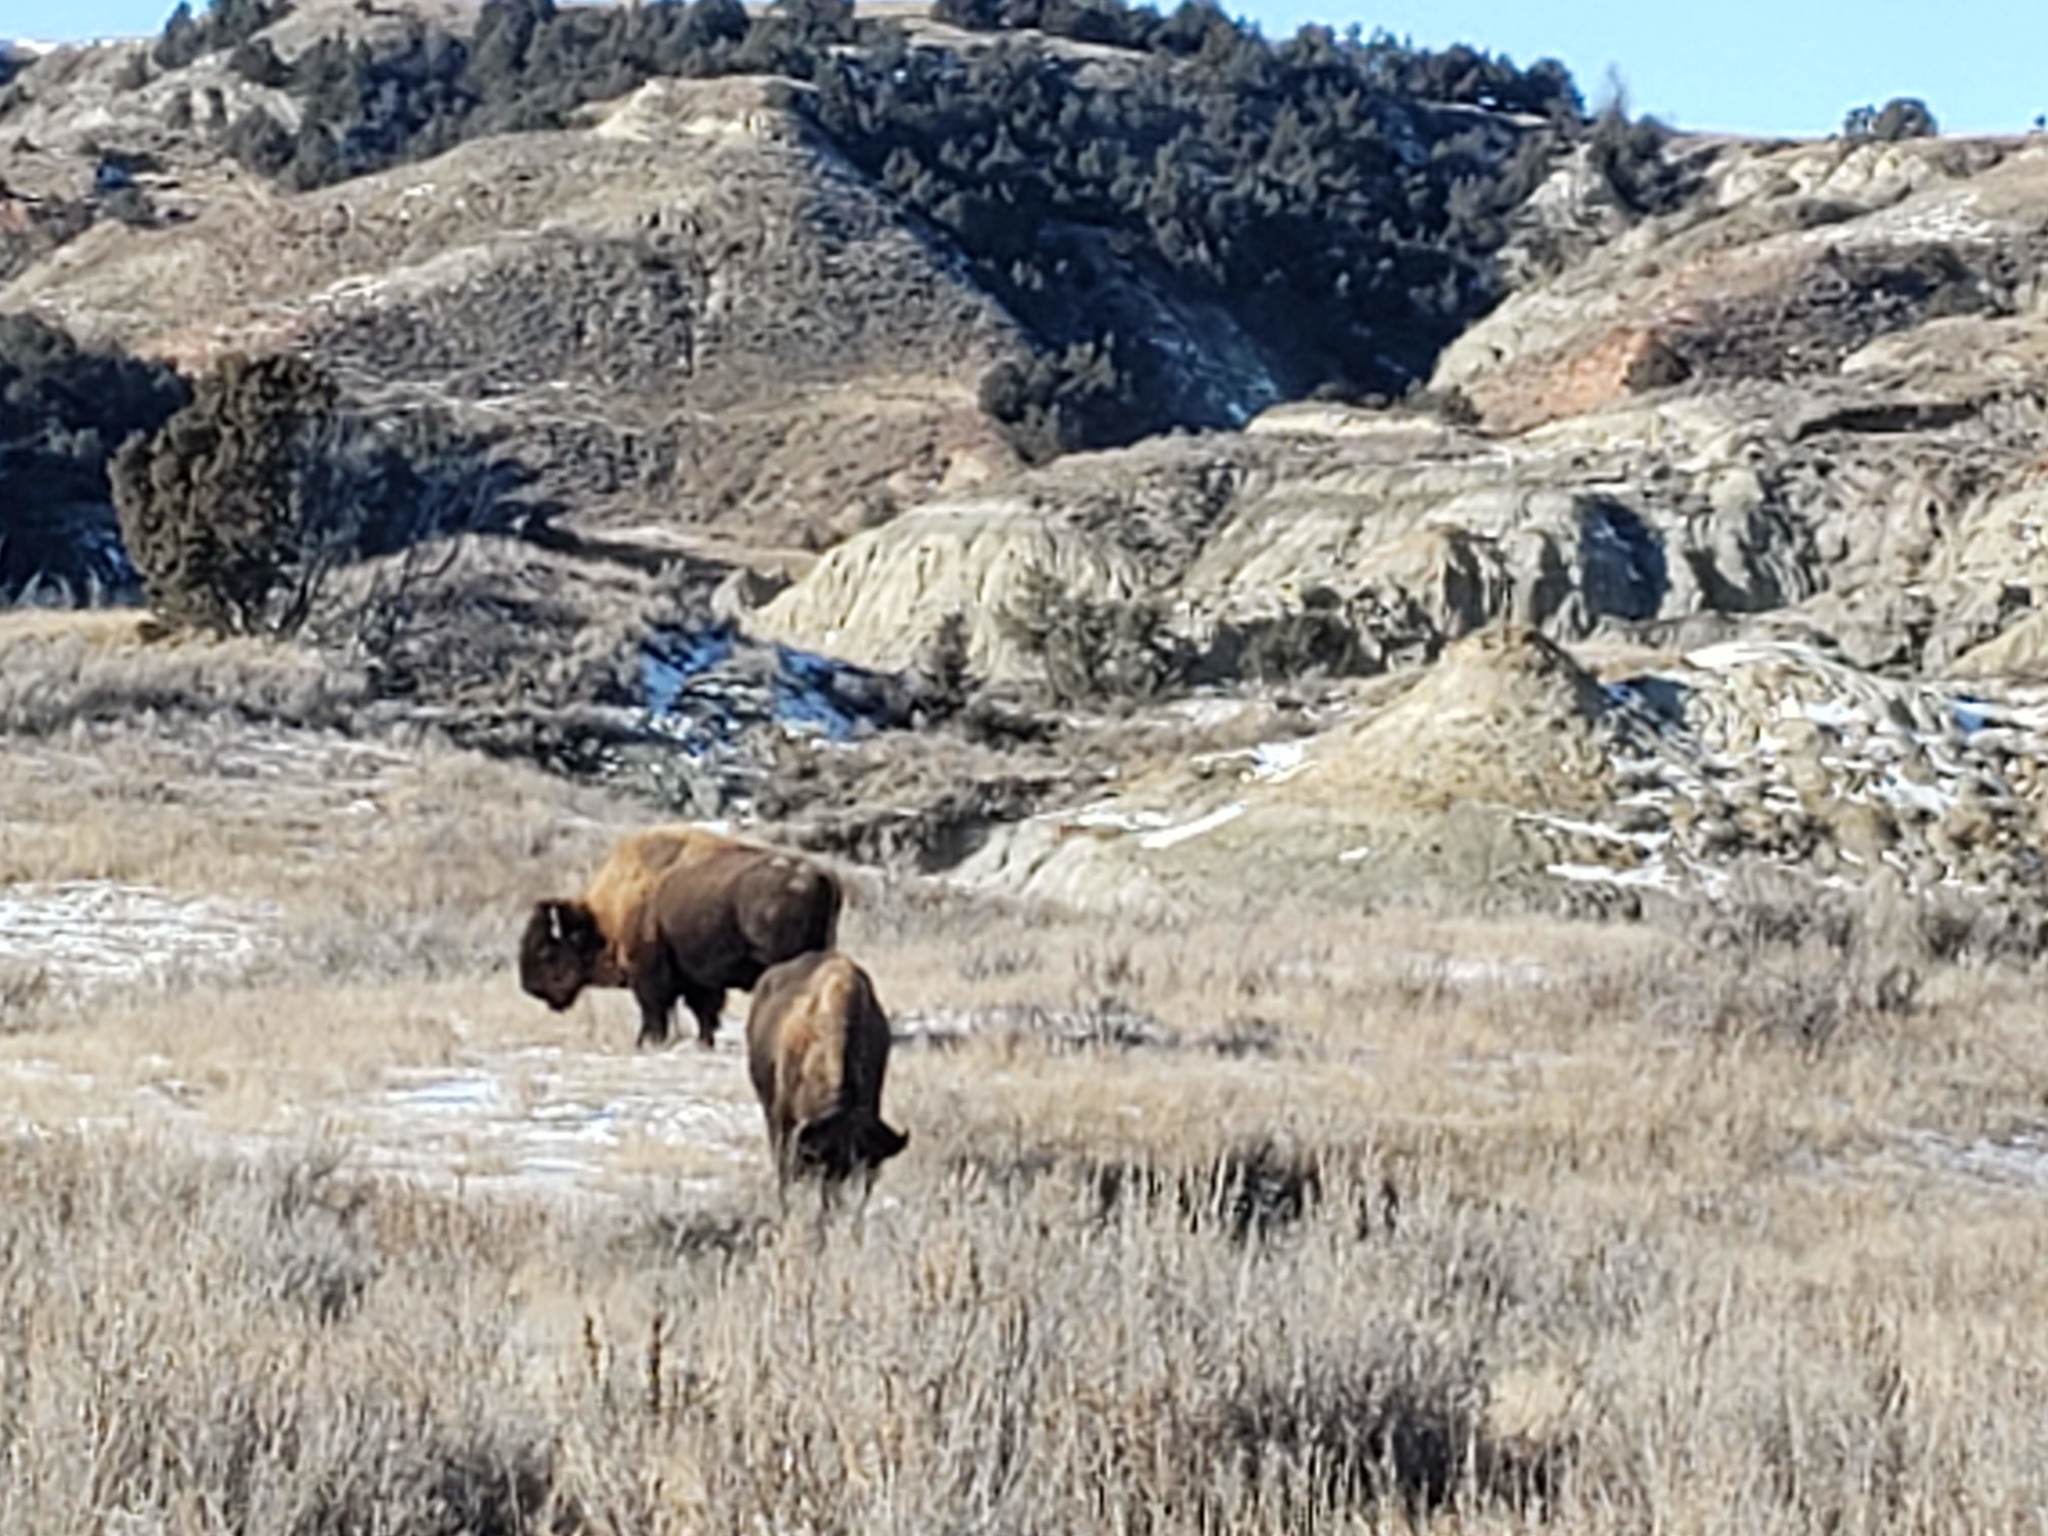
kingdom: Animalia
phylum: Chordata
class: Mammalia
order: Artiodactyla
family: Bovidae
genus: Bison
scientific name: Bison bison
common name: American bison
